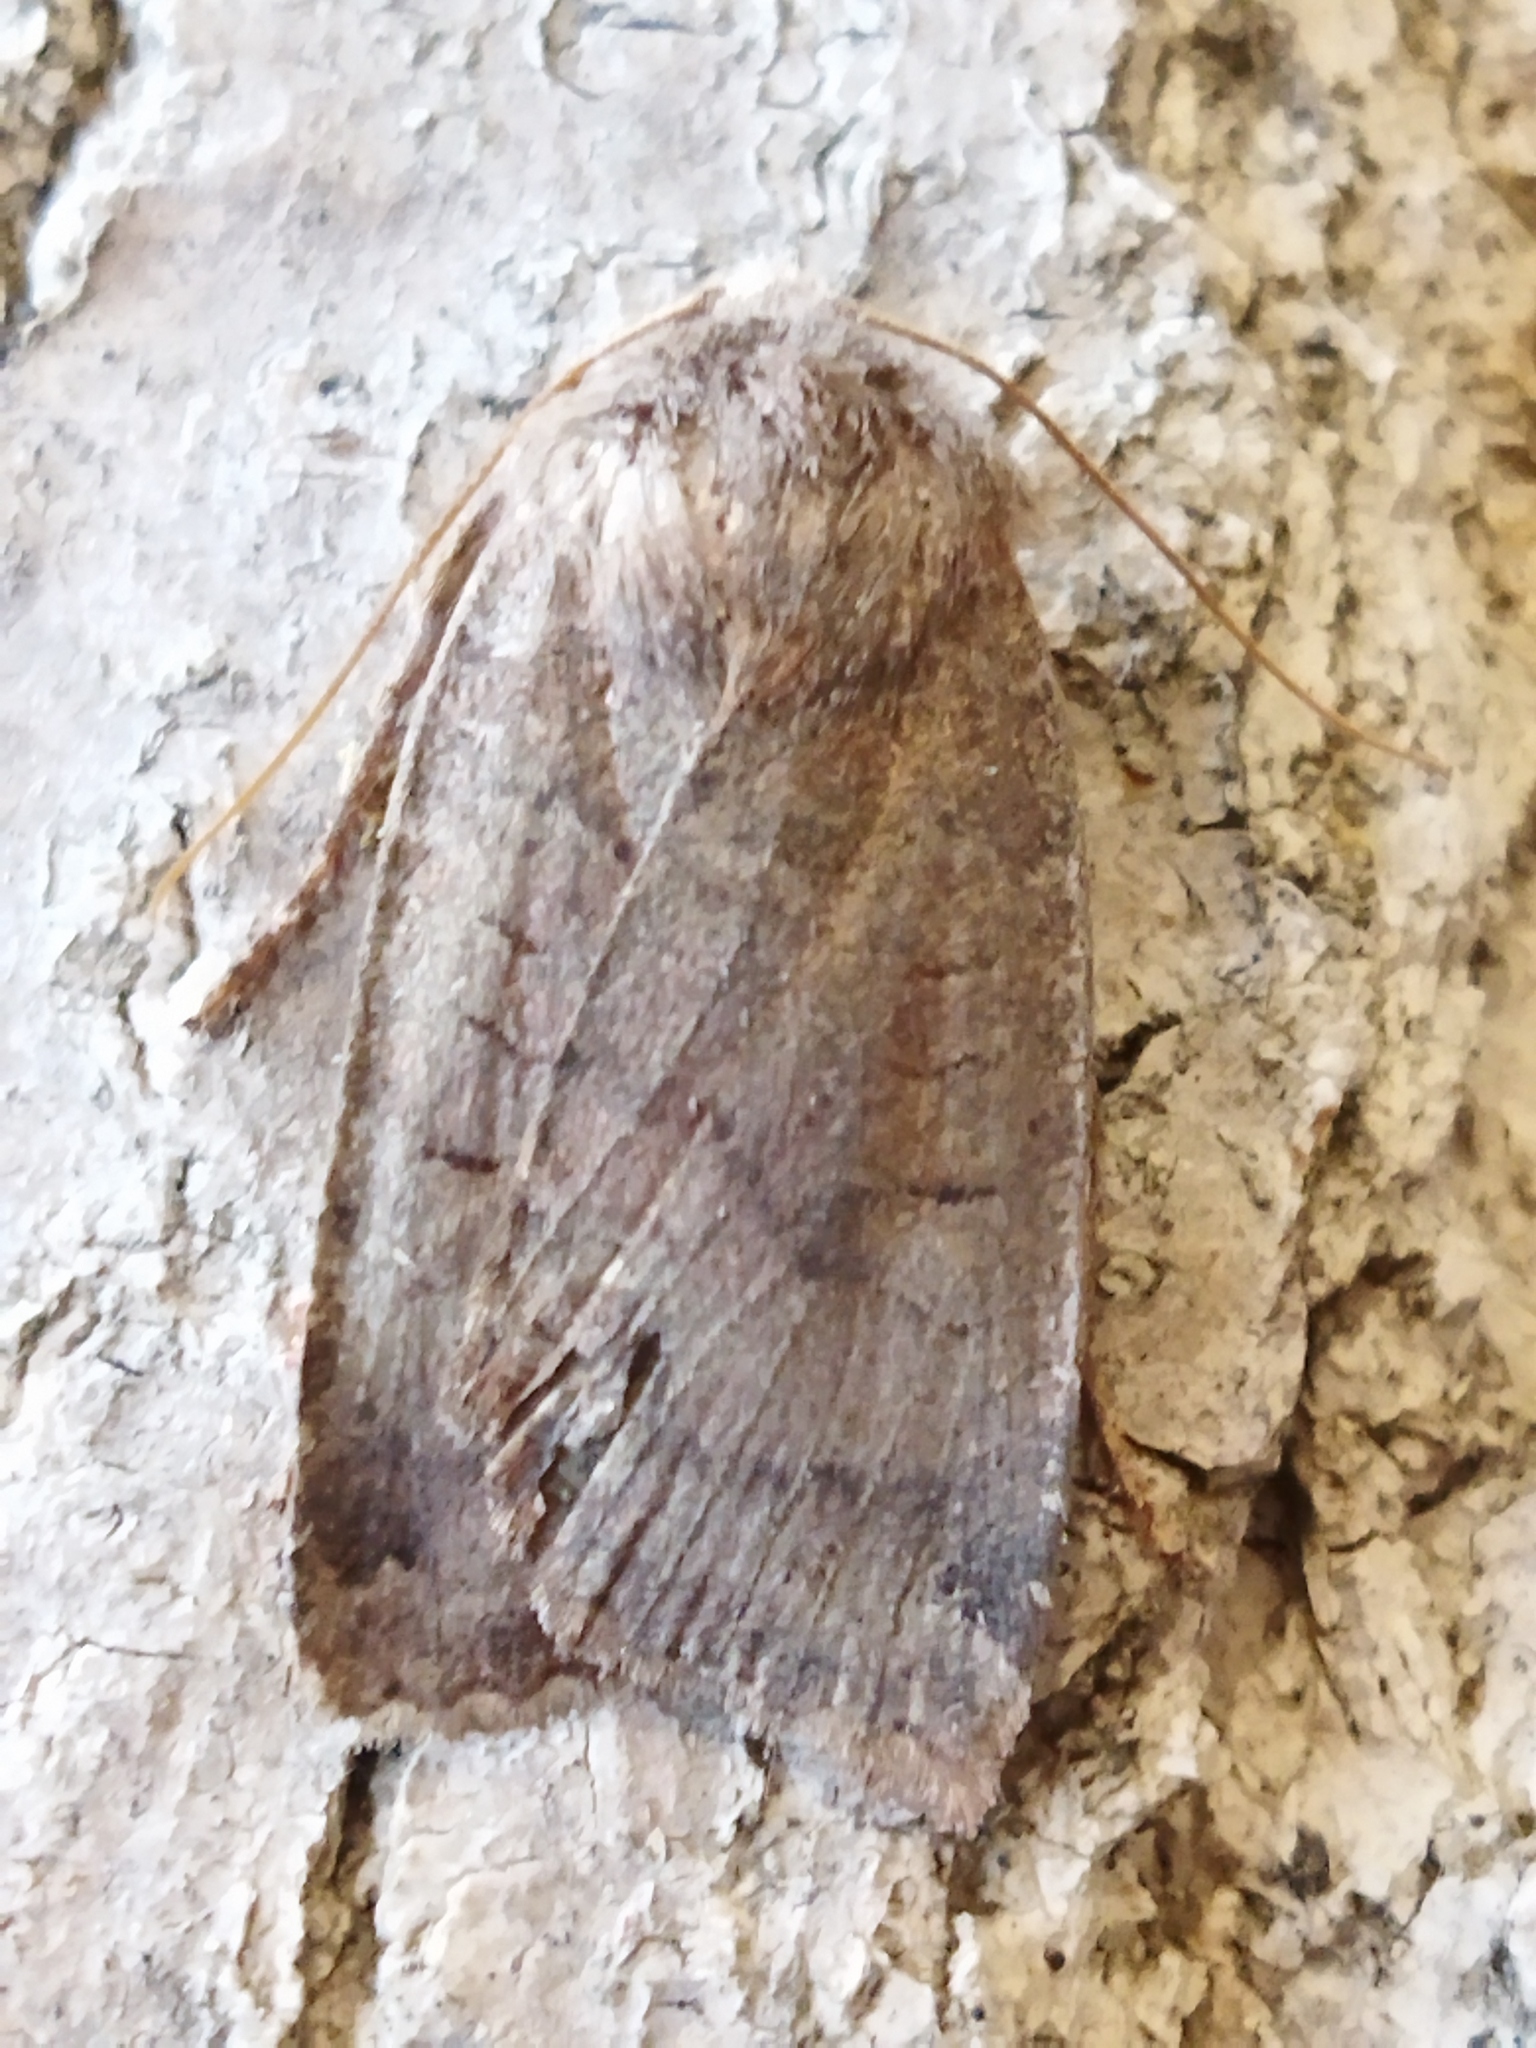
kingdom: Animalia
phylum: Arthropoda
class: Insecta
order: Lepidoptera
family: Noctuidae
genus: Conistra
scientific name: Conistra vaccinii
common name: Chestnut
